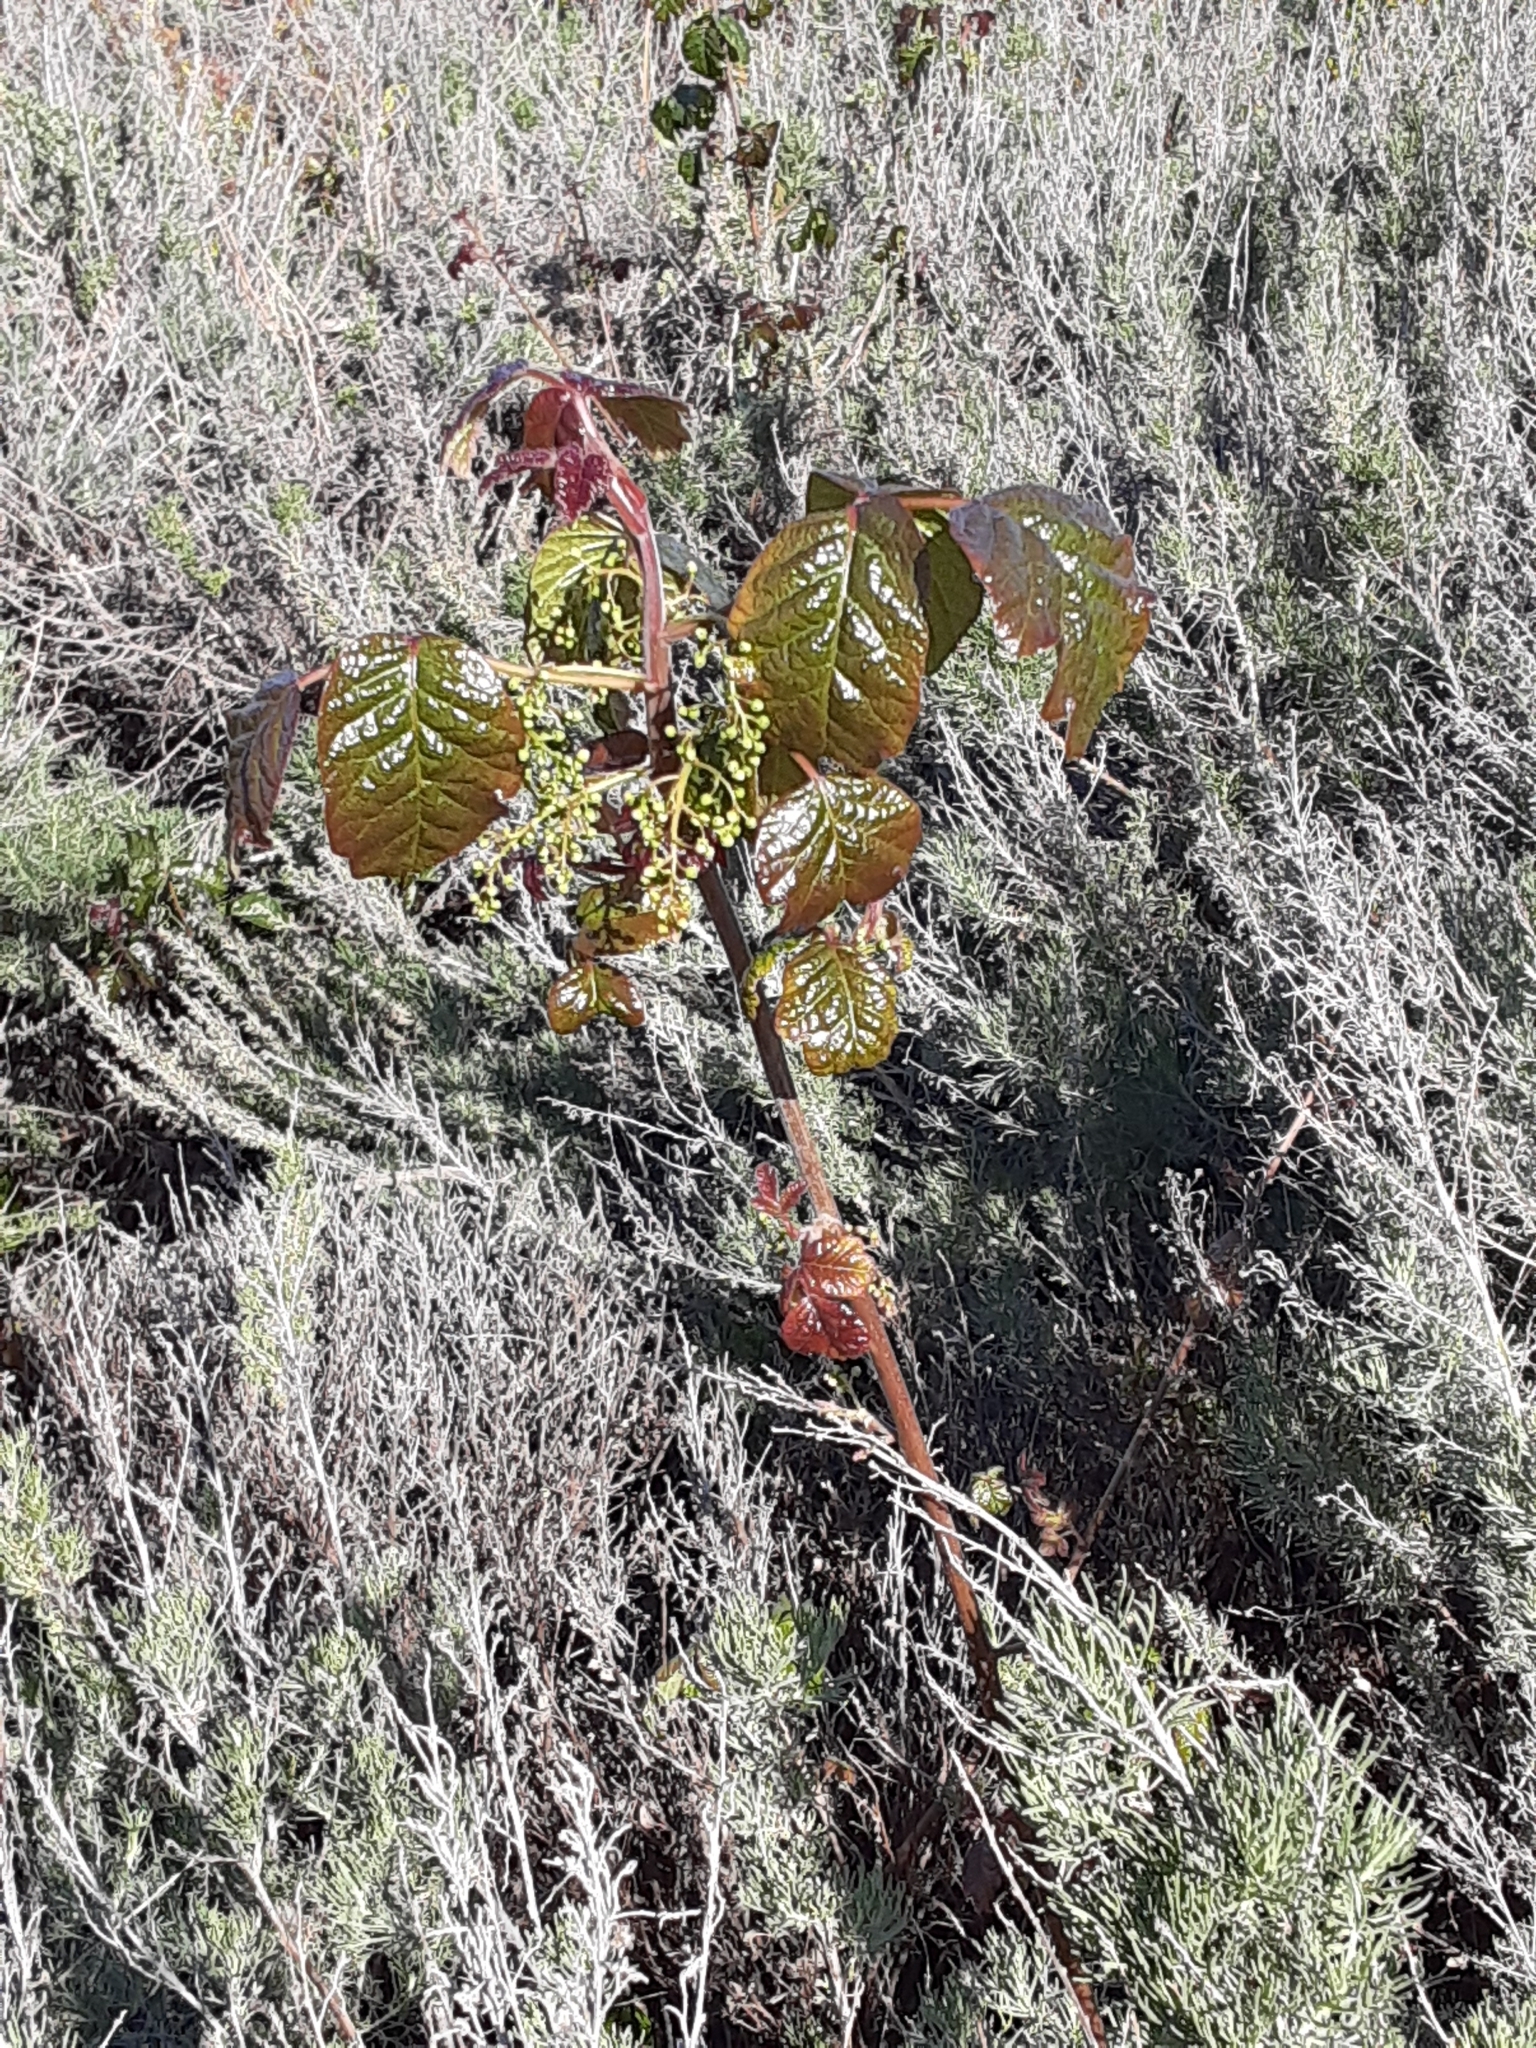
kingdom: Plantae
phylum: Tracheophyta
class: Magnoliopsida
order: Sapindales
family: Anacardiaceae
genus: Toxicodendron
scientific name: Toxicodendron diversilobum
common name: Pacific poison-oak
